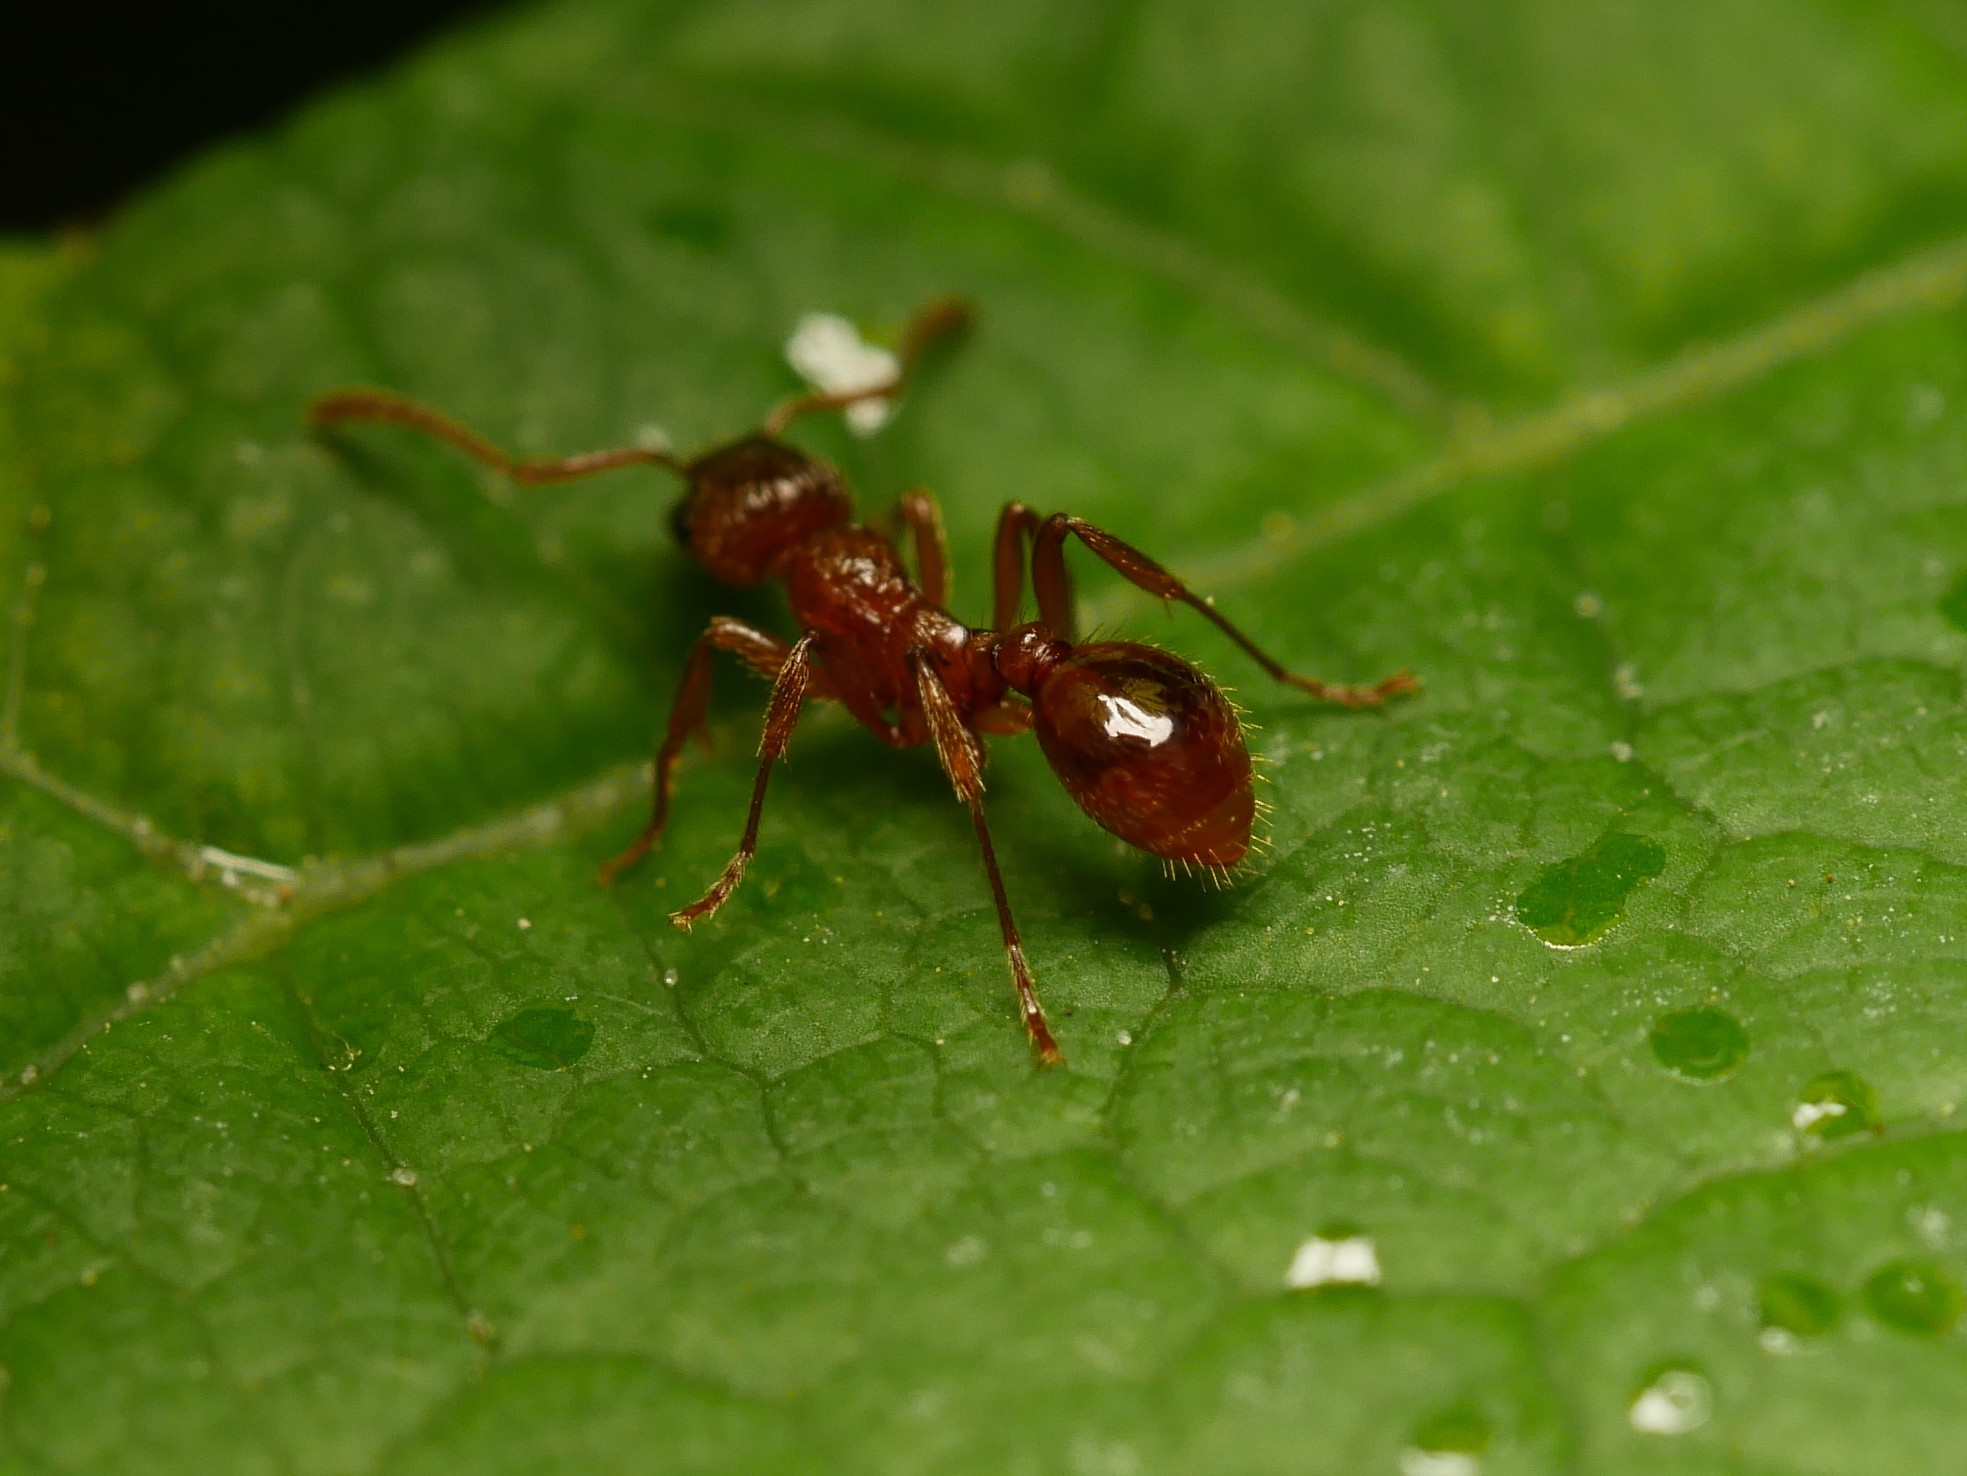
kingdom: Animalia
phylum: Arthropoda
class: Insecta
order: Hymenoptera
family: Formicidae
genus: Myrmica
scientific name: Myrmica rubra
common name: European fire ant
